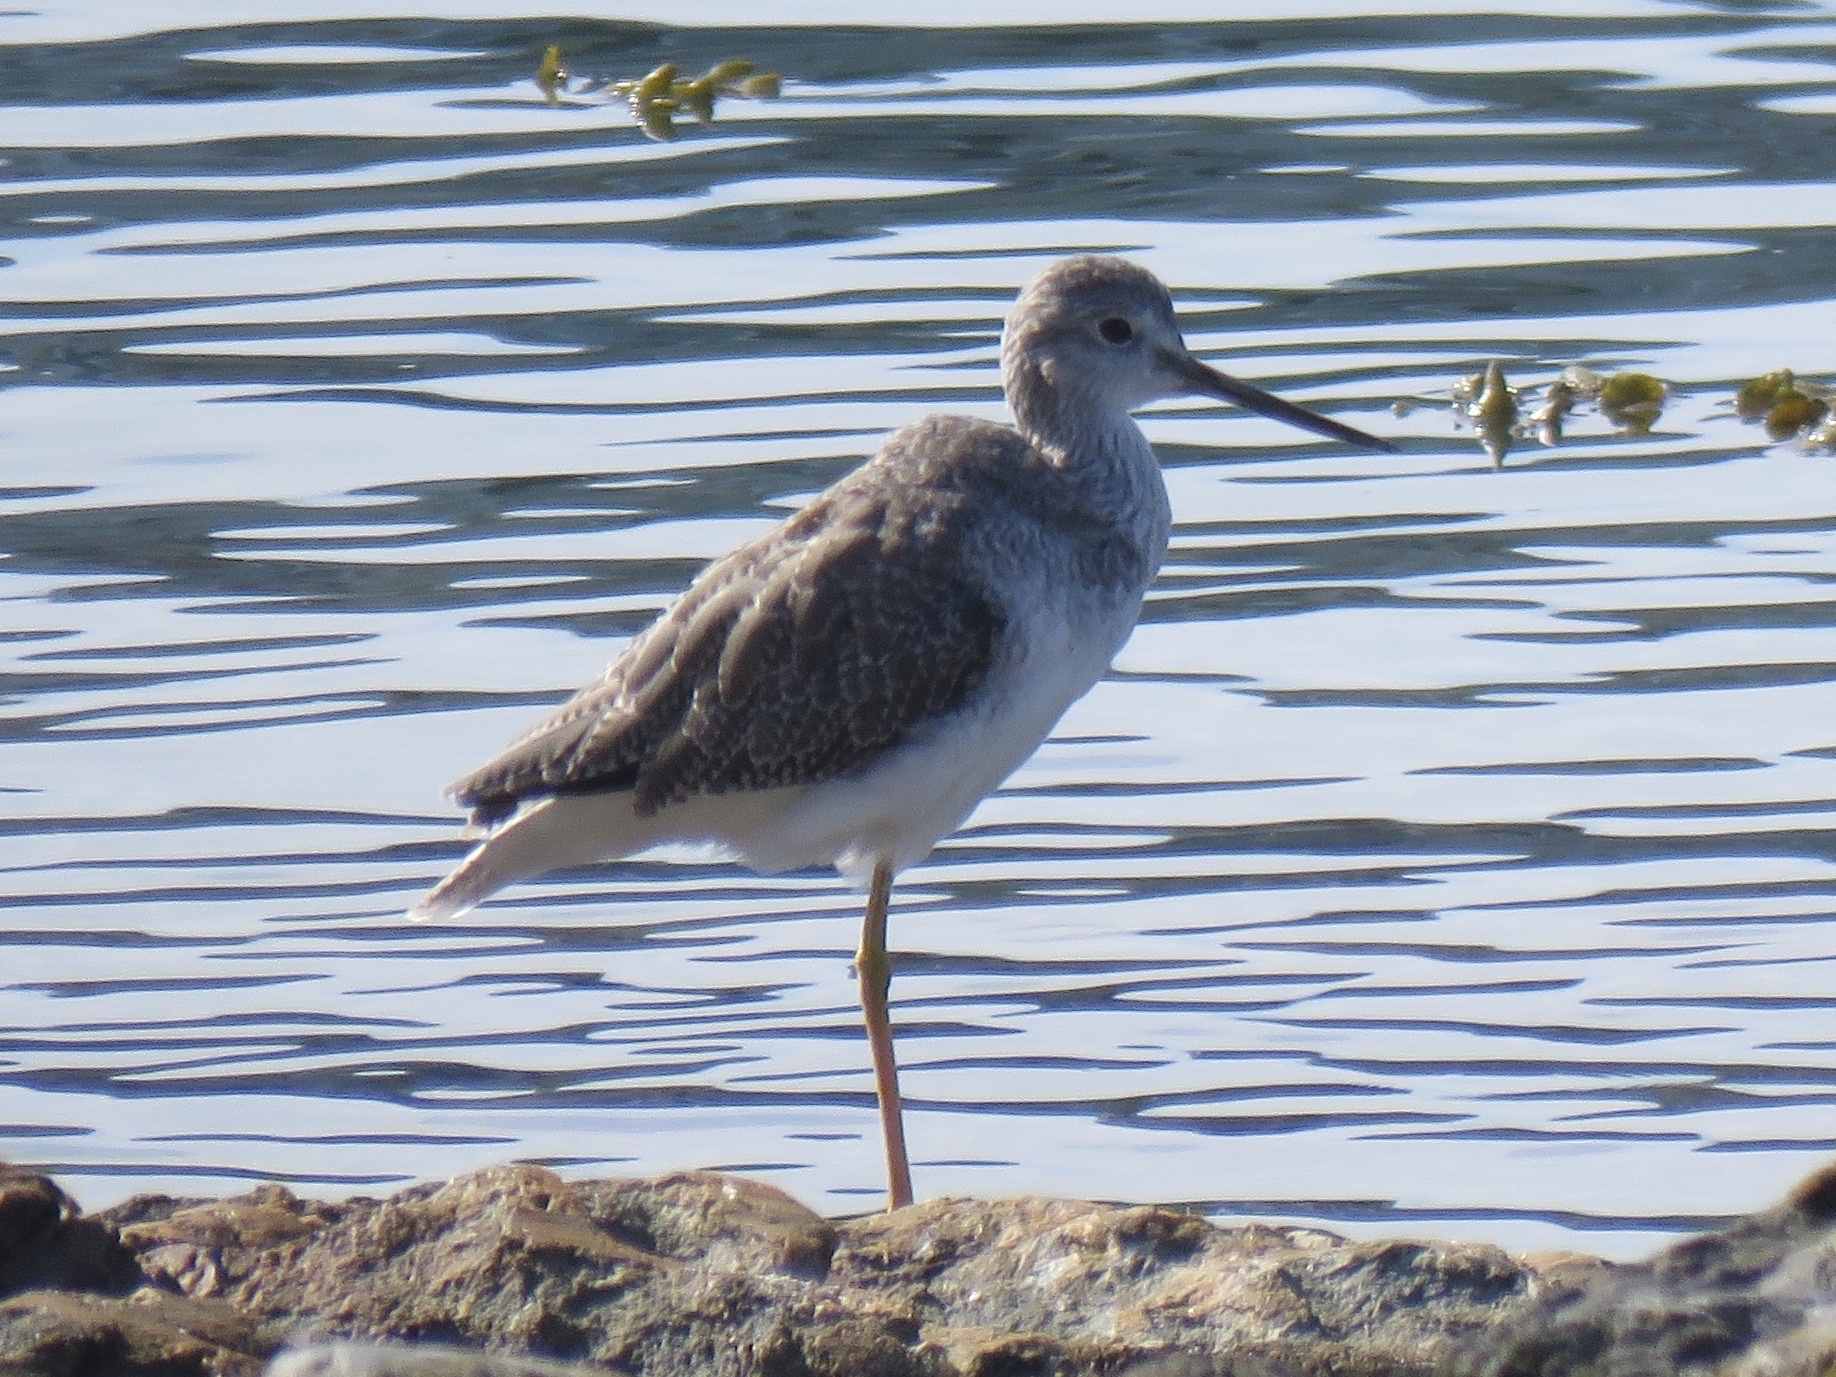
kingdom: Animalia
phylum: Chordata
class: Aves
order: Charadriiformes
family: Scolopacidae
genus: Tringa
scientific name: Tringa melanoleuca
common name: Greater yellowlegs
